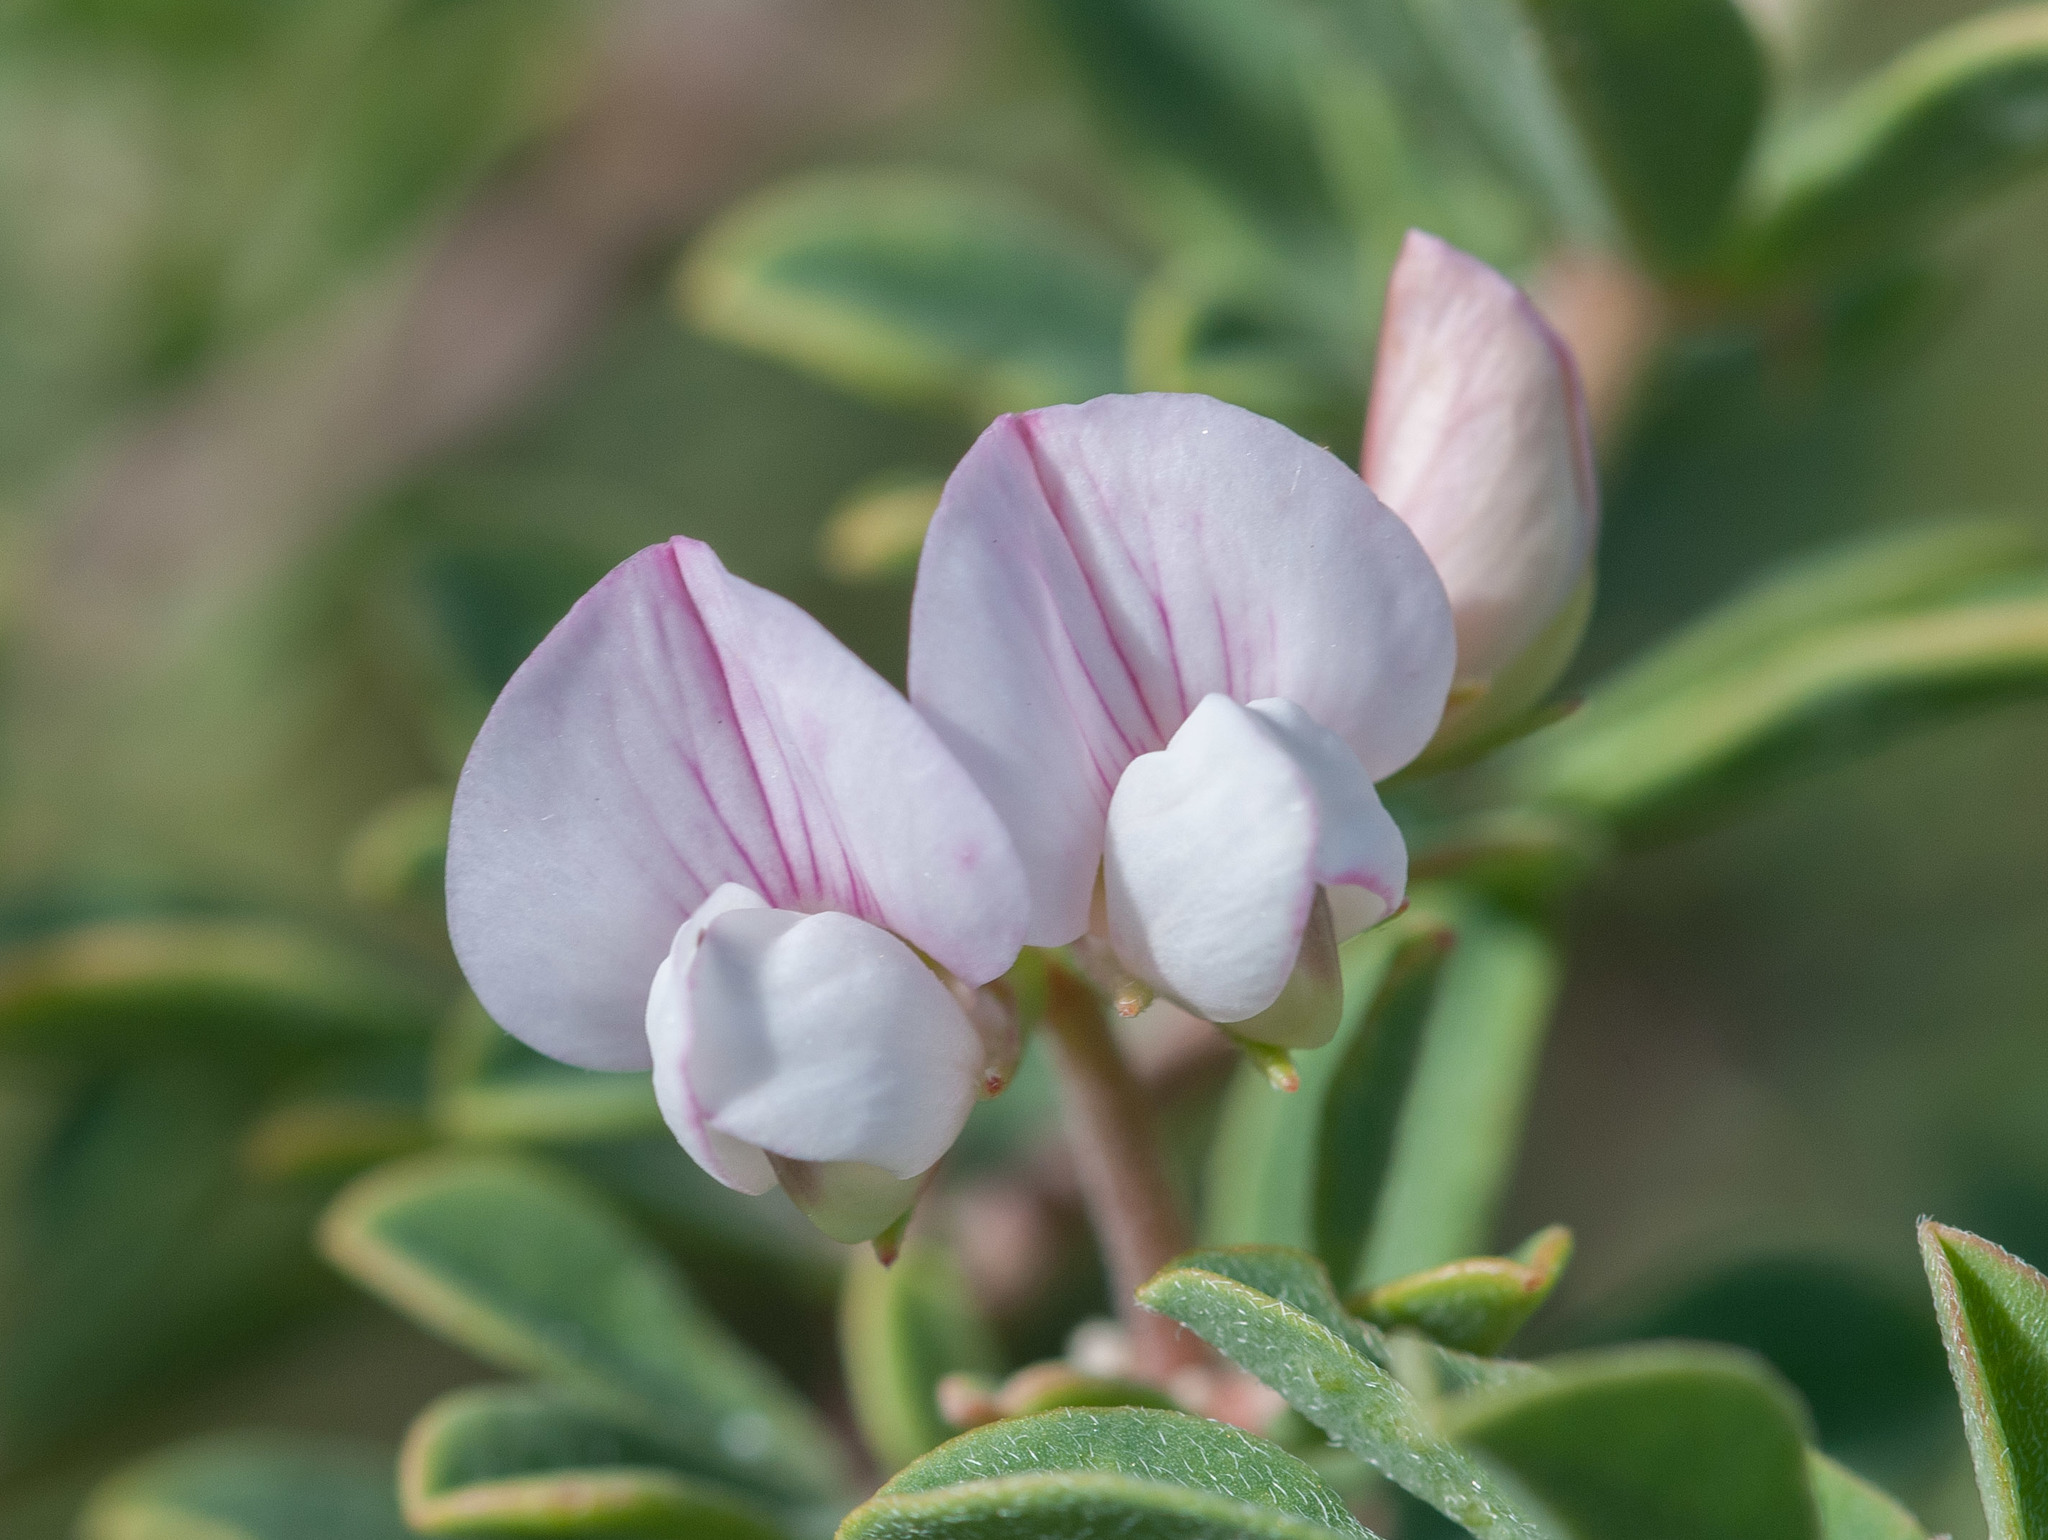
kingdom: Plantae
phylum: Tracheophyta
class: Magnoliopsida
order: Fabales
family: Fabaceae
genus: Lotus
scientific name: Lotus australis
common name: Australian trefoil
